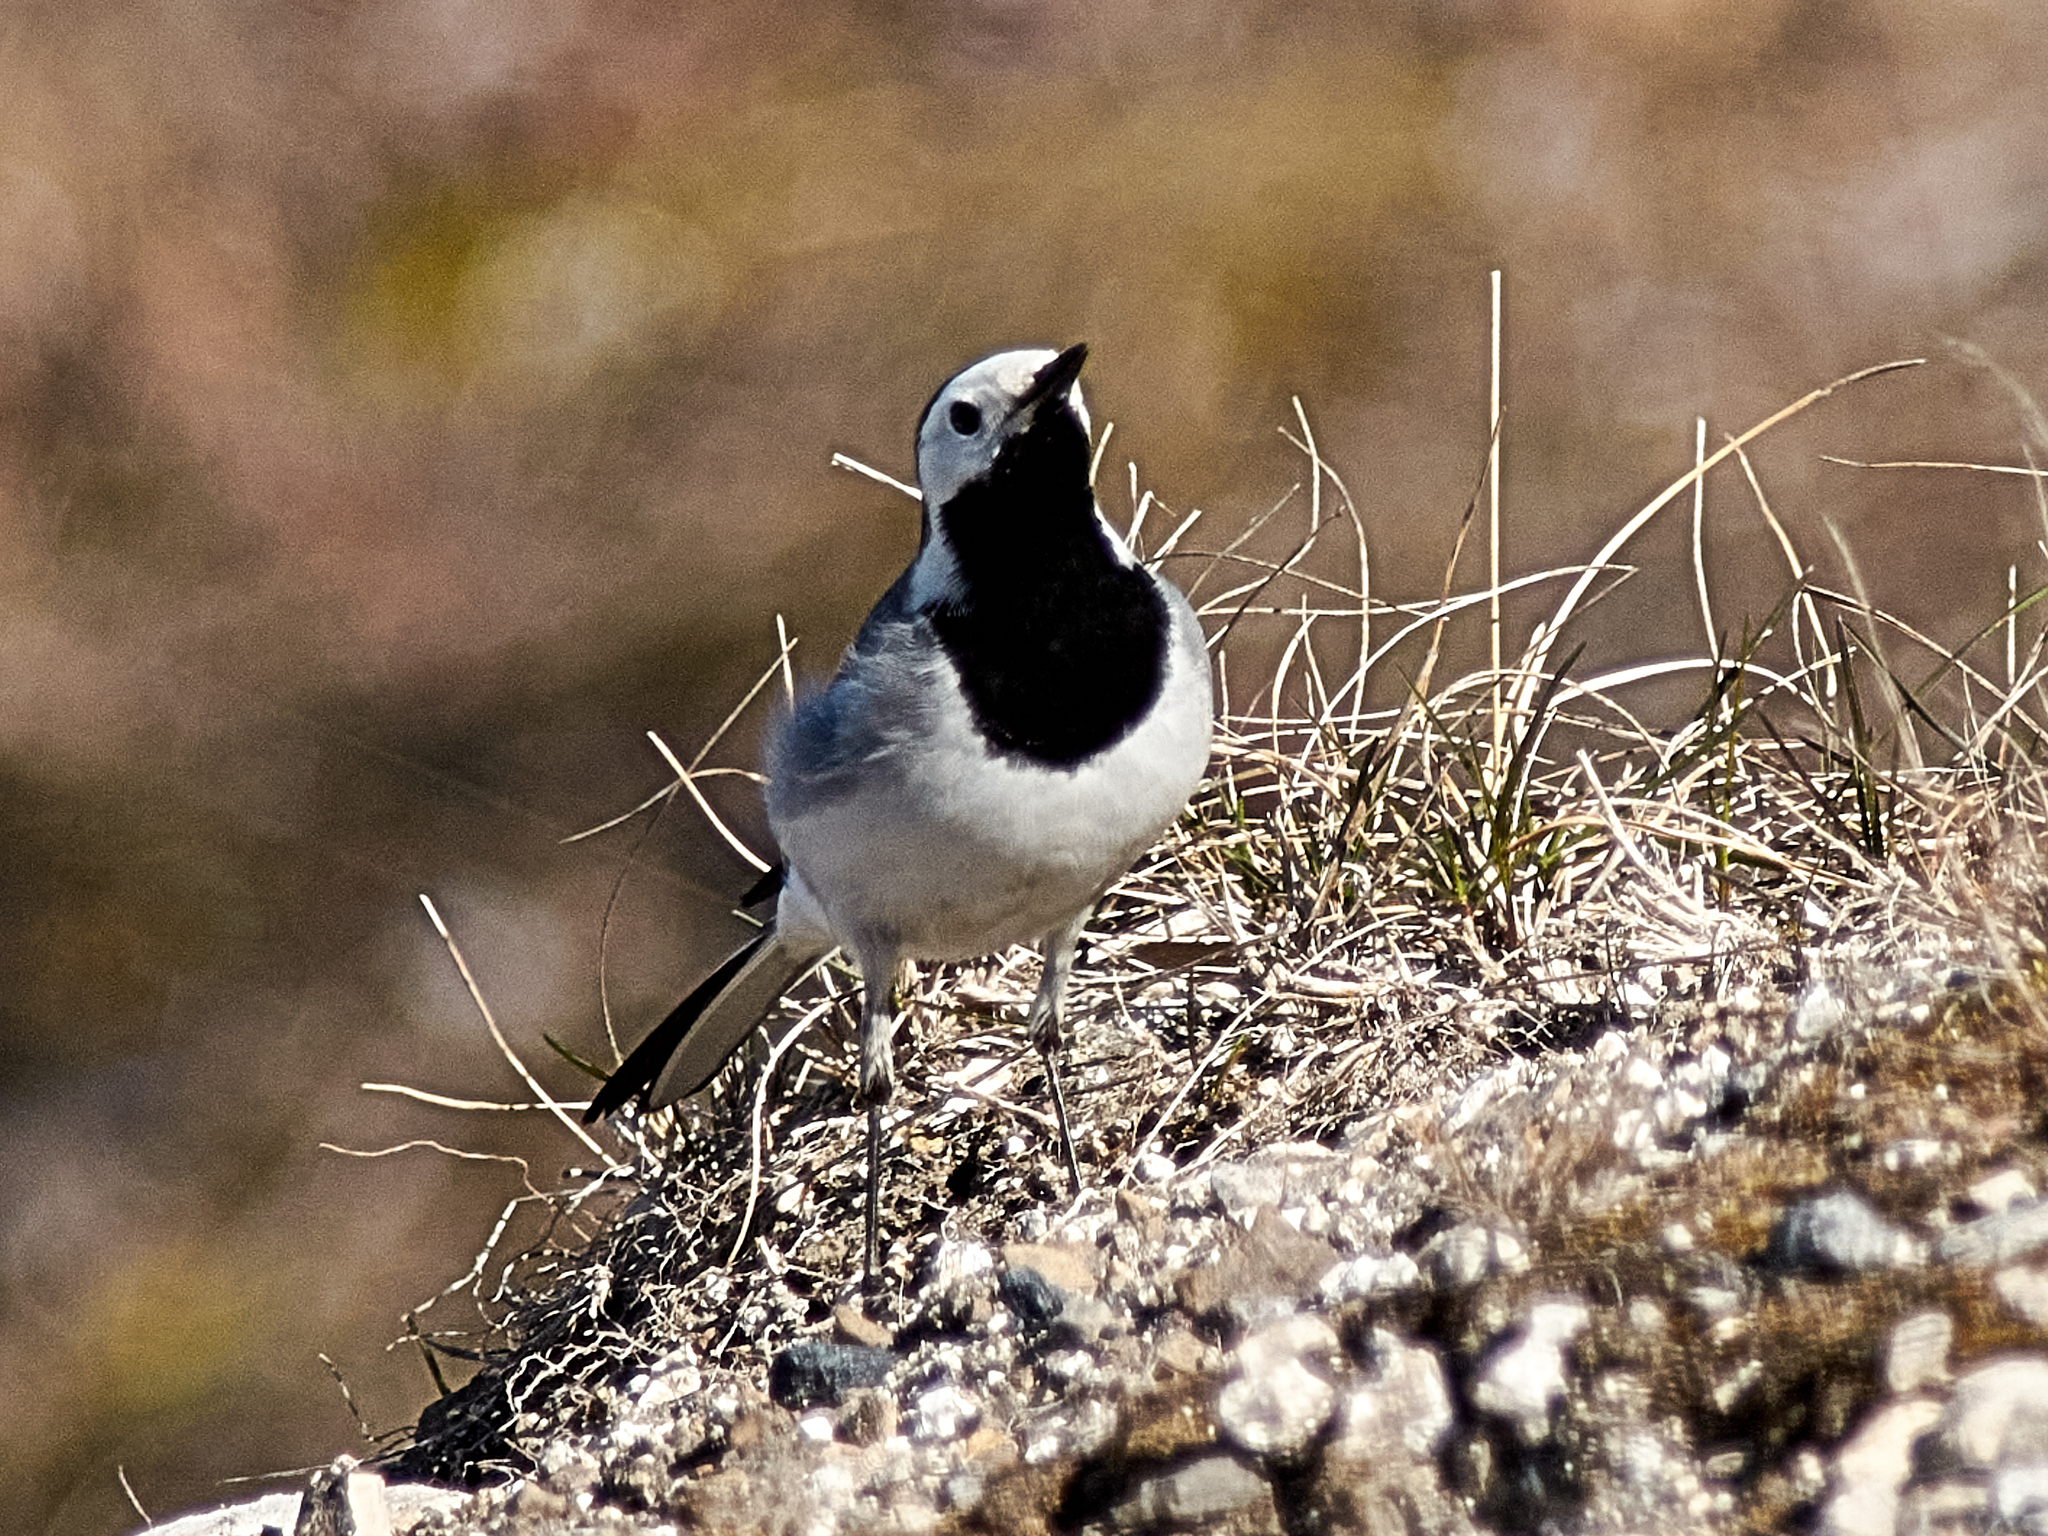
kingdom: Animalia
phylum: Chordata
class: Aves
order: Passeriformes
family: Motacillidae
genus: Motacilla
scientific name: Motacilla alba
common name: White wagtail
